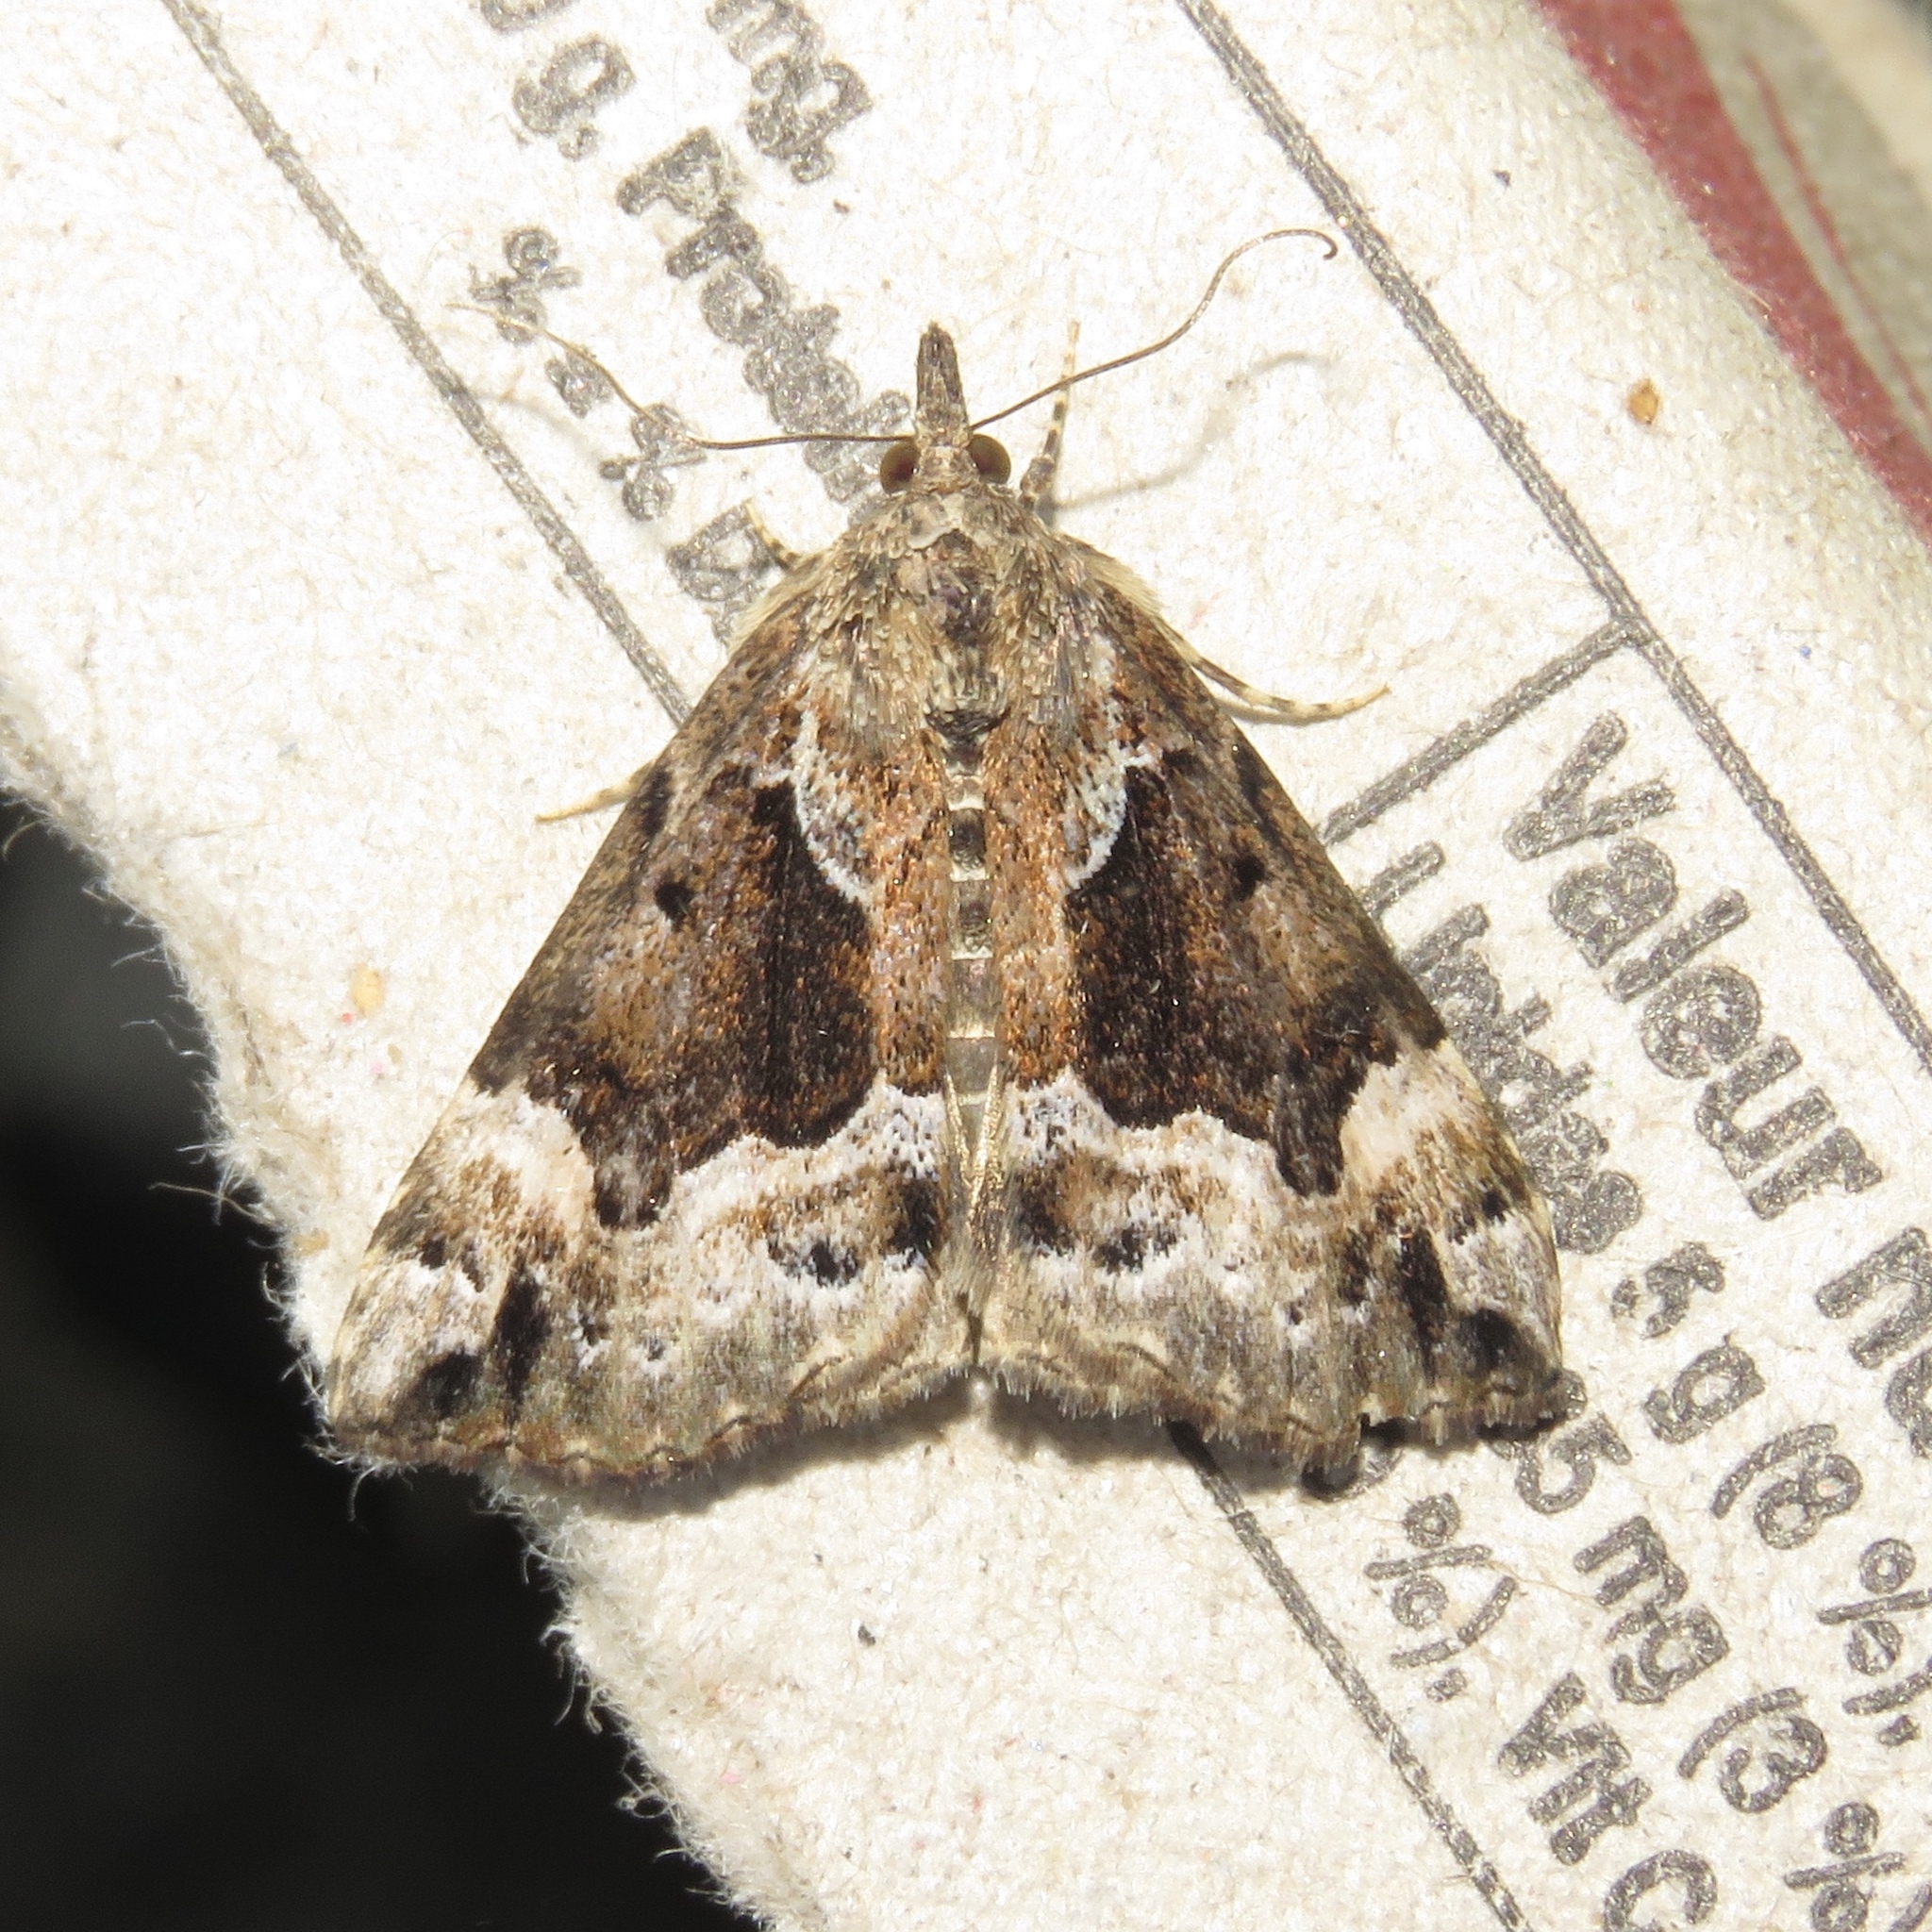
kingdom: Animalia
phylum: Arthropoda
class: Insecta
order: Lepidoptera
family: Erebidae
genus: Hypena
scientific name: Hypena palparia
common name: Mottled bomolocha moth
